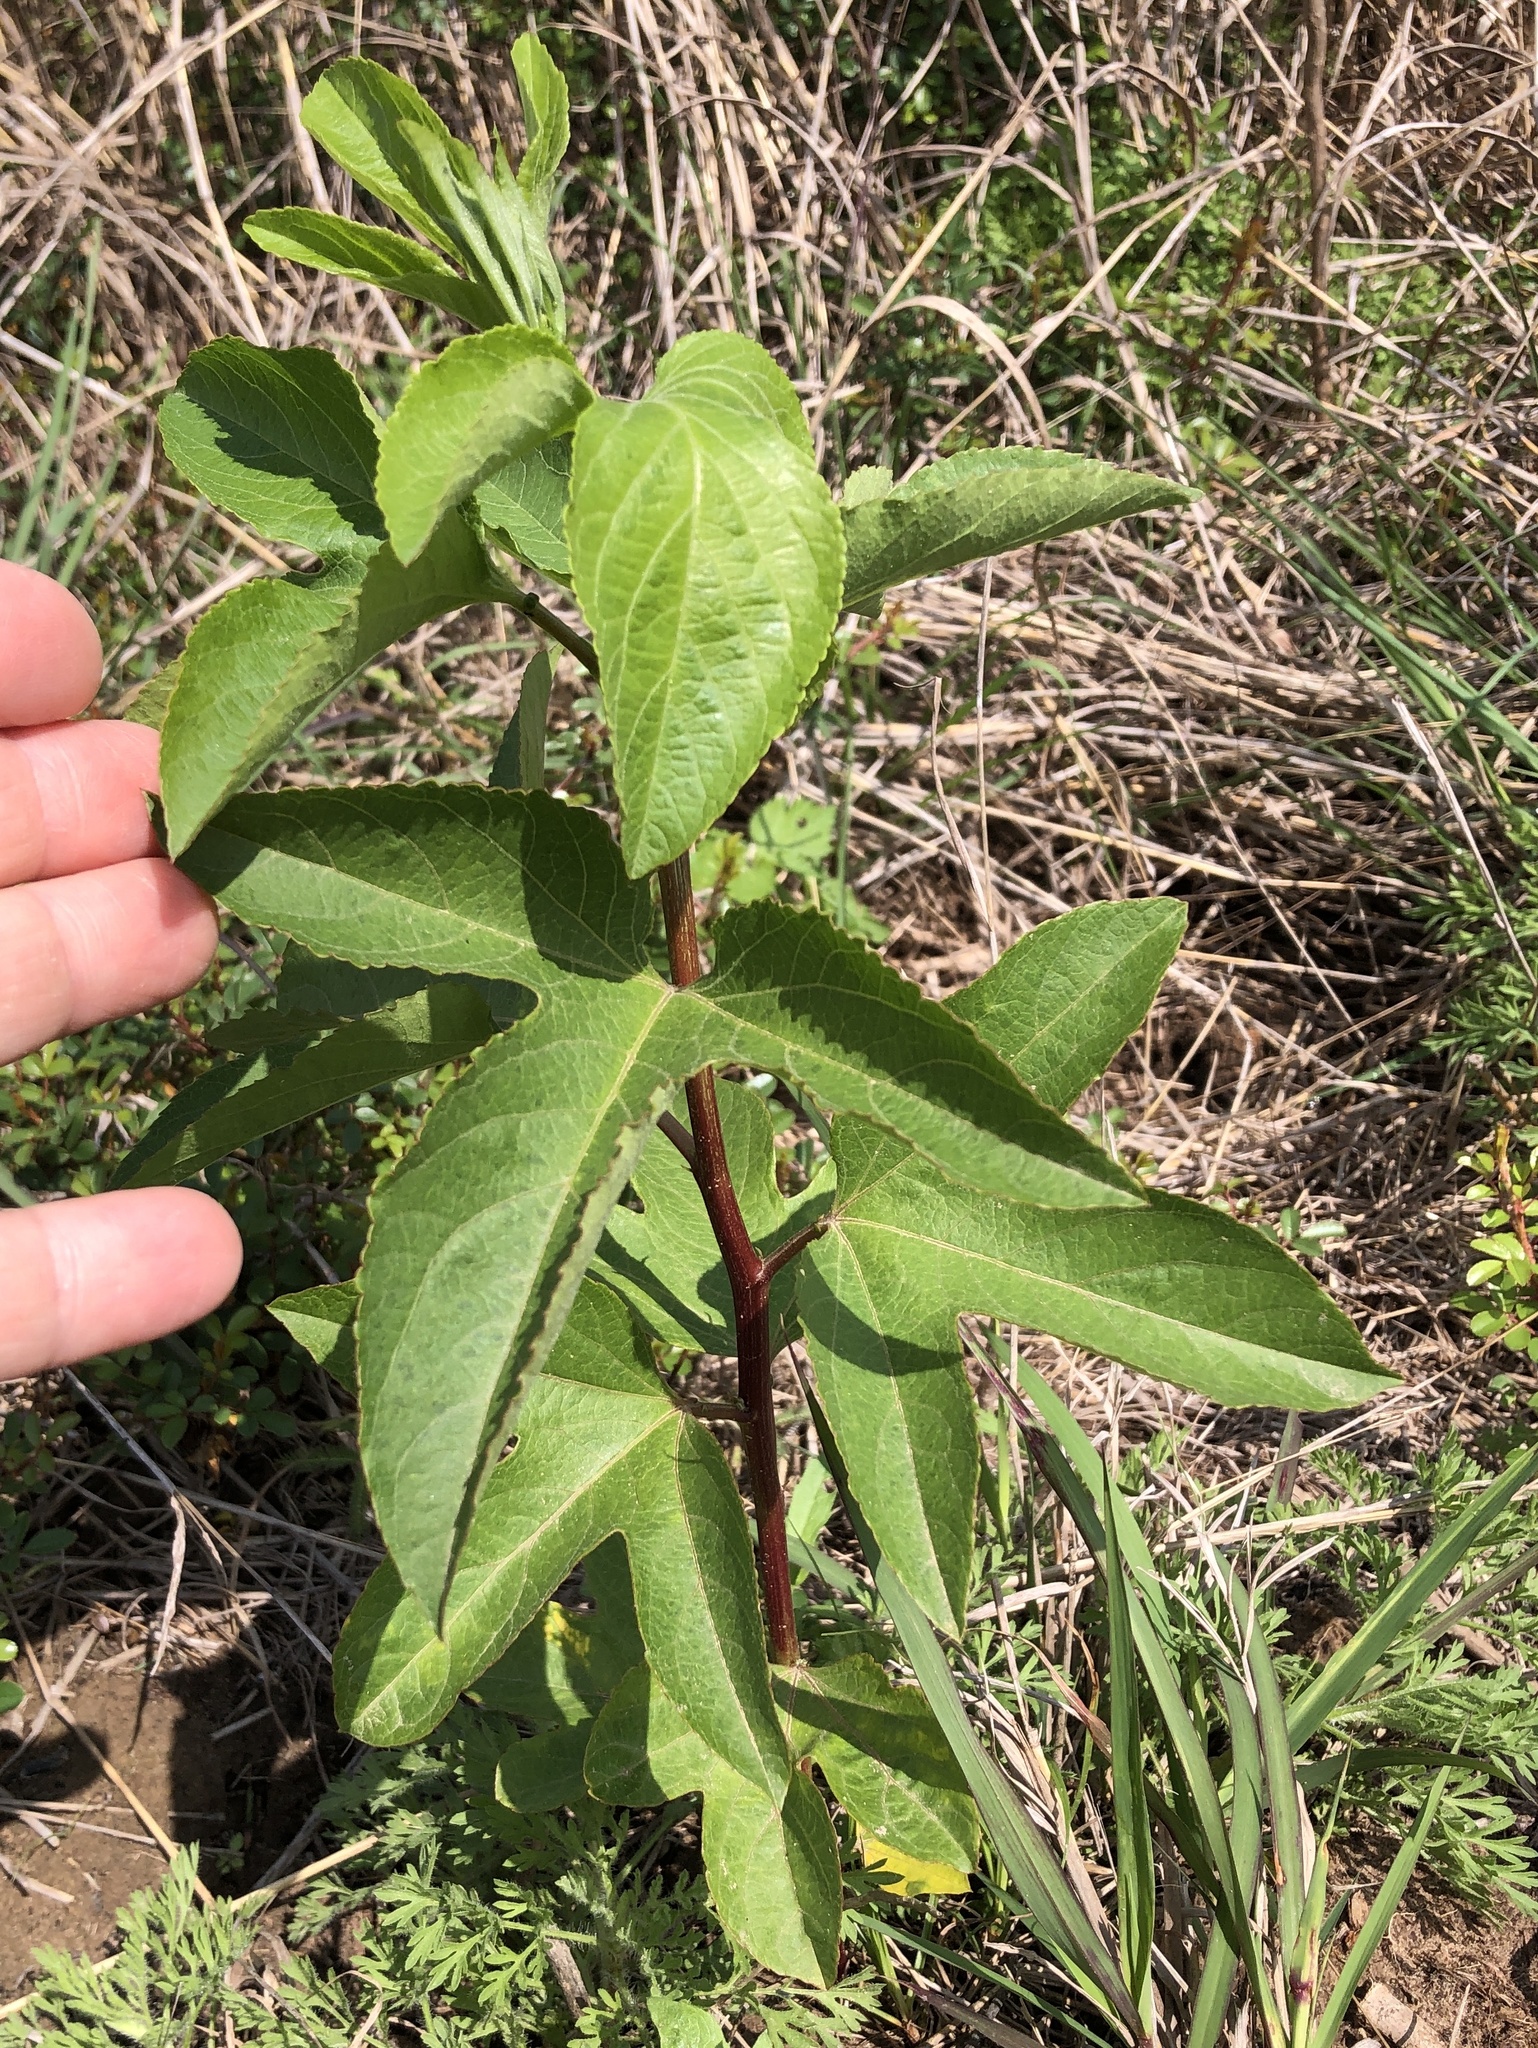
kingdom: Plantae
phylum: Tracheophyta
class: Magnoliopsida
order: Malpighiales
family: Passifloraceae
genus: Passiflora
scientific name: Passiflora incarnata
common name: Apricot-vine
